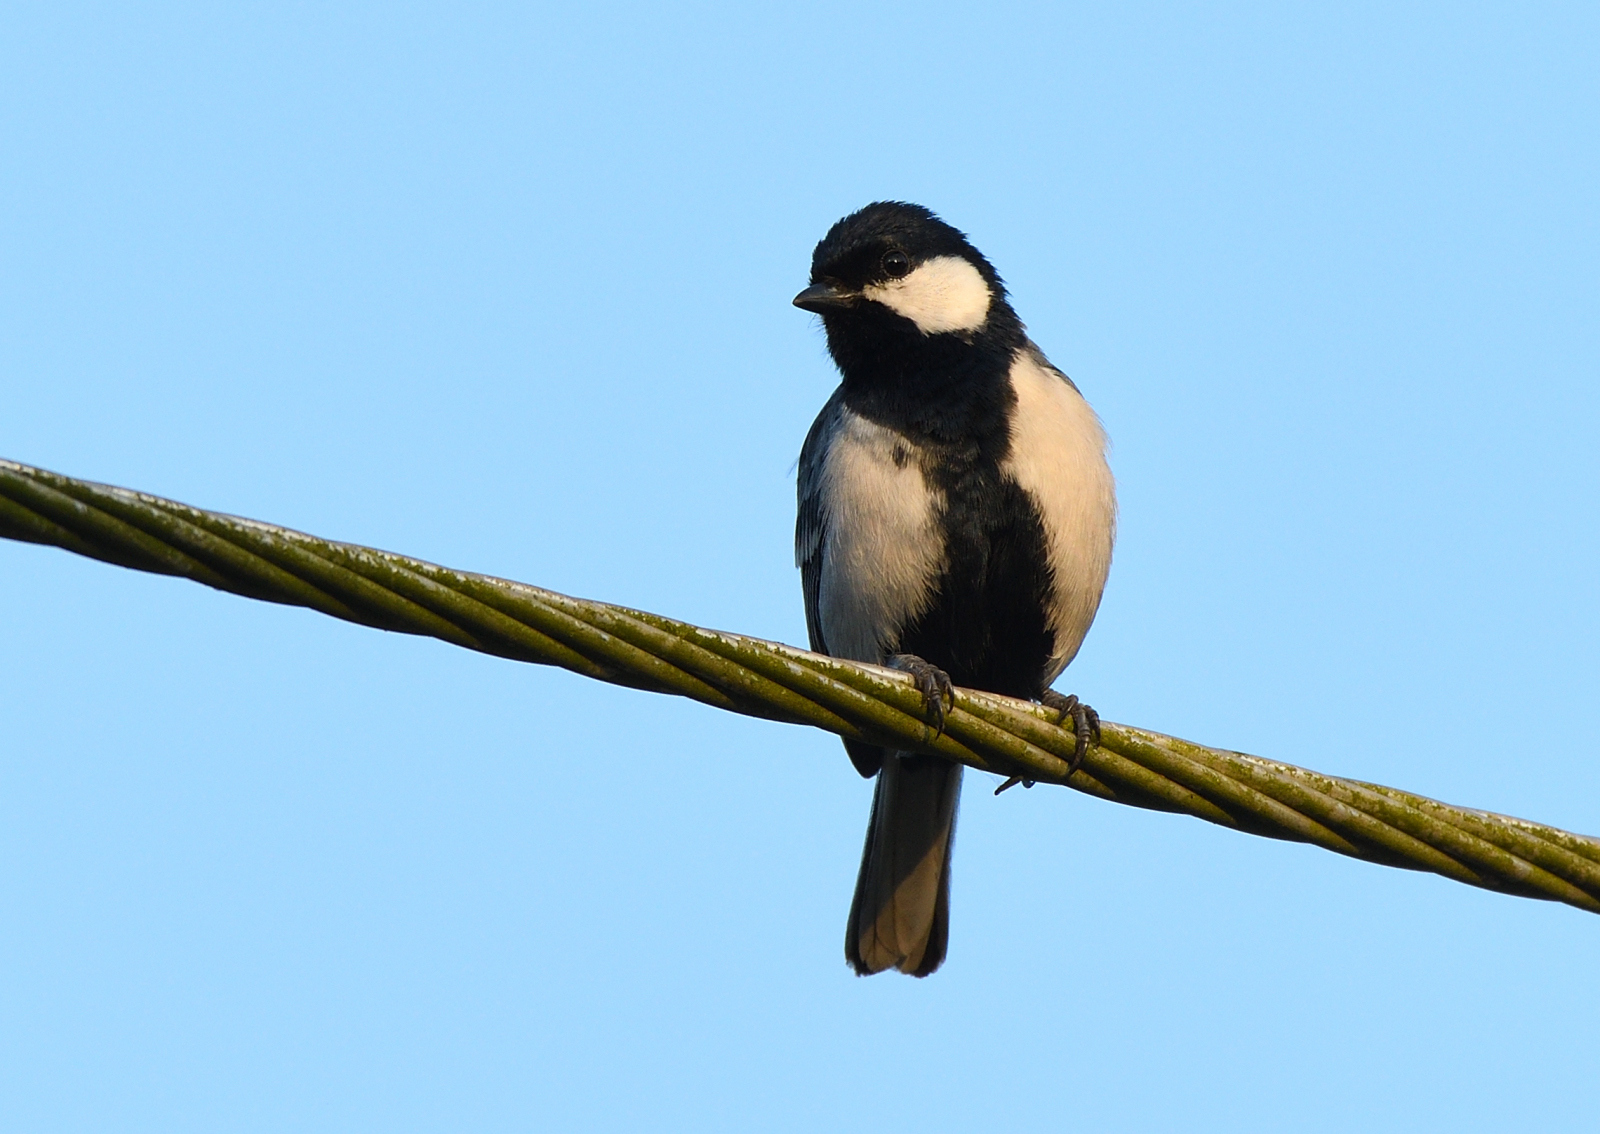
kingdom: Animalia
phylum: Chordata
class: Aves
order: Passeriformes
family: Paridae
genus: Parus
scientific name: Parus cinereus
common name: Cinereous tit
